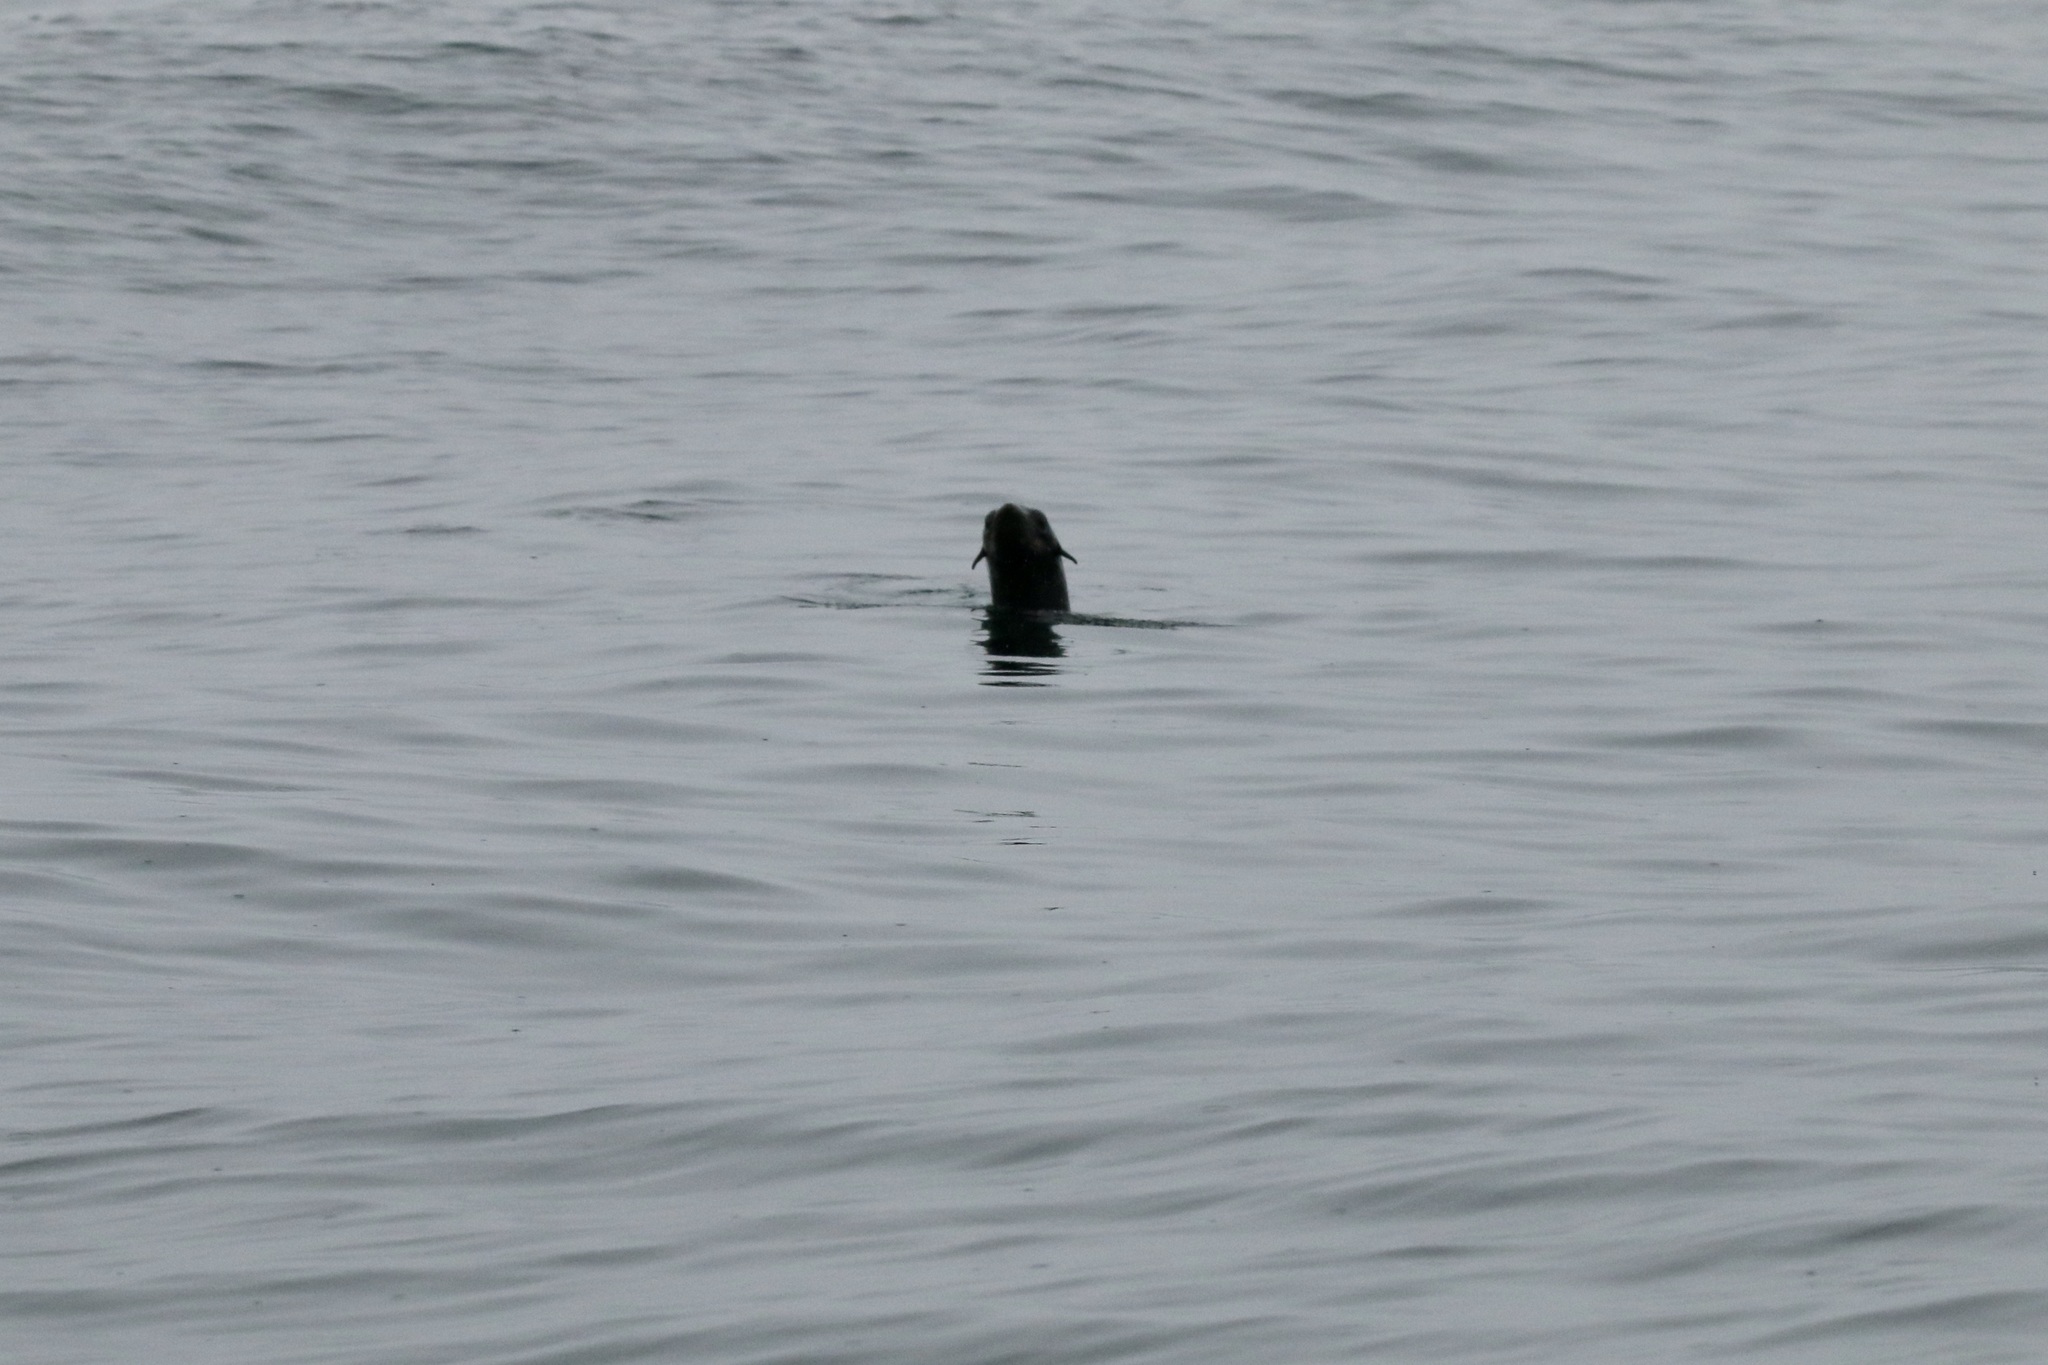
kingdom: Animalia
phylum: Chordata
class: Mammalia
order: Carnivora
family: Otariidae
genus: Callorhinus
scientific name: Callorhinus ursinus
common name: Northern fur seal
